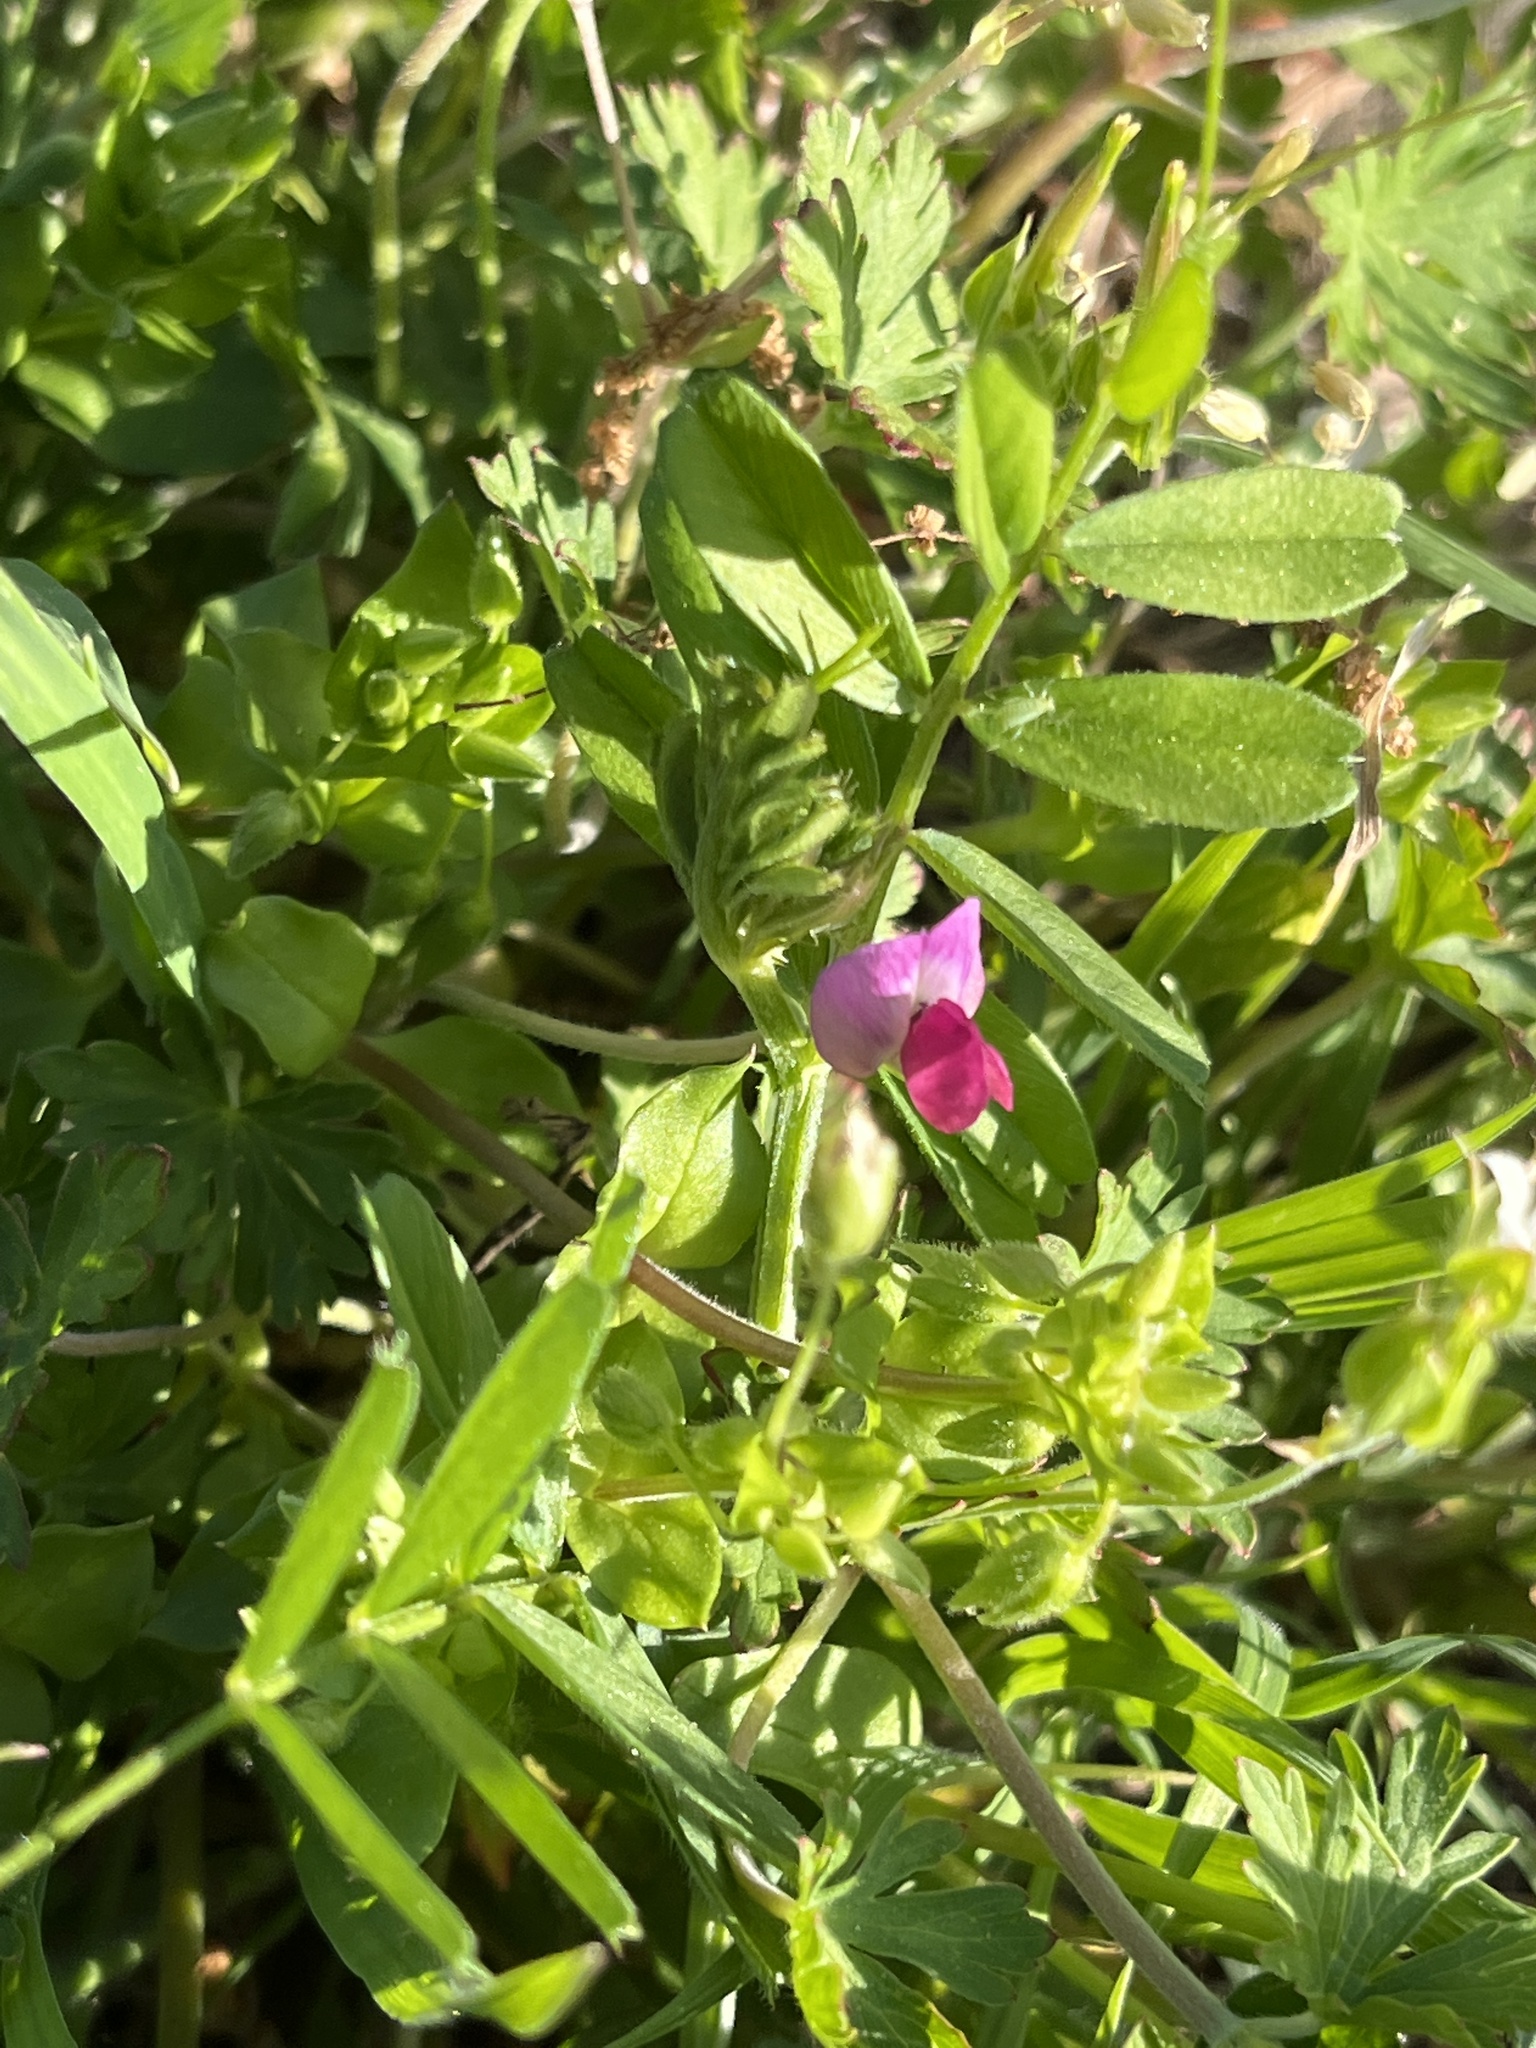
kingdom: Plantae
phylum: Tracheophyta
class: Magnoliopsida
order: Fabales
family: Fabaceae
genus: Vicia
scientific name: Vicia sativa
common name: Garden vetch
